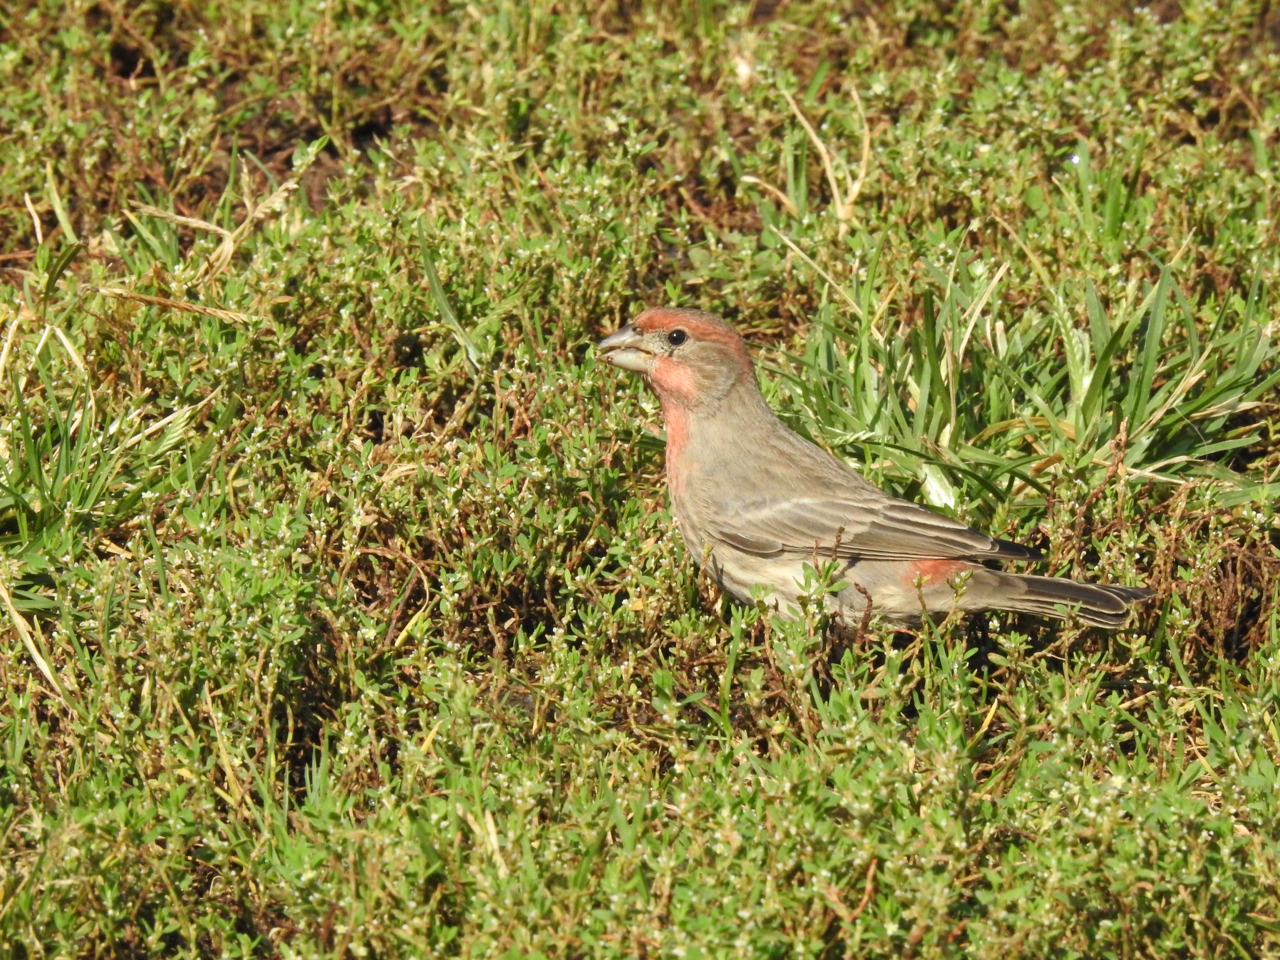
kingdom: Animalia
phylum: Chordata
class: Aves
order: Passeriformes
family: Fringillidae
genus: Haemorhous
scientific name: Haemorhous mexicanus
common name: House finch
